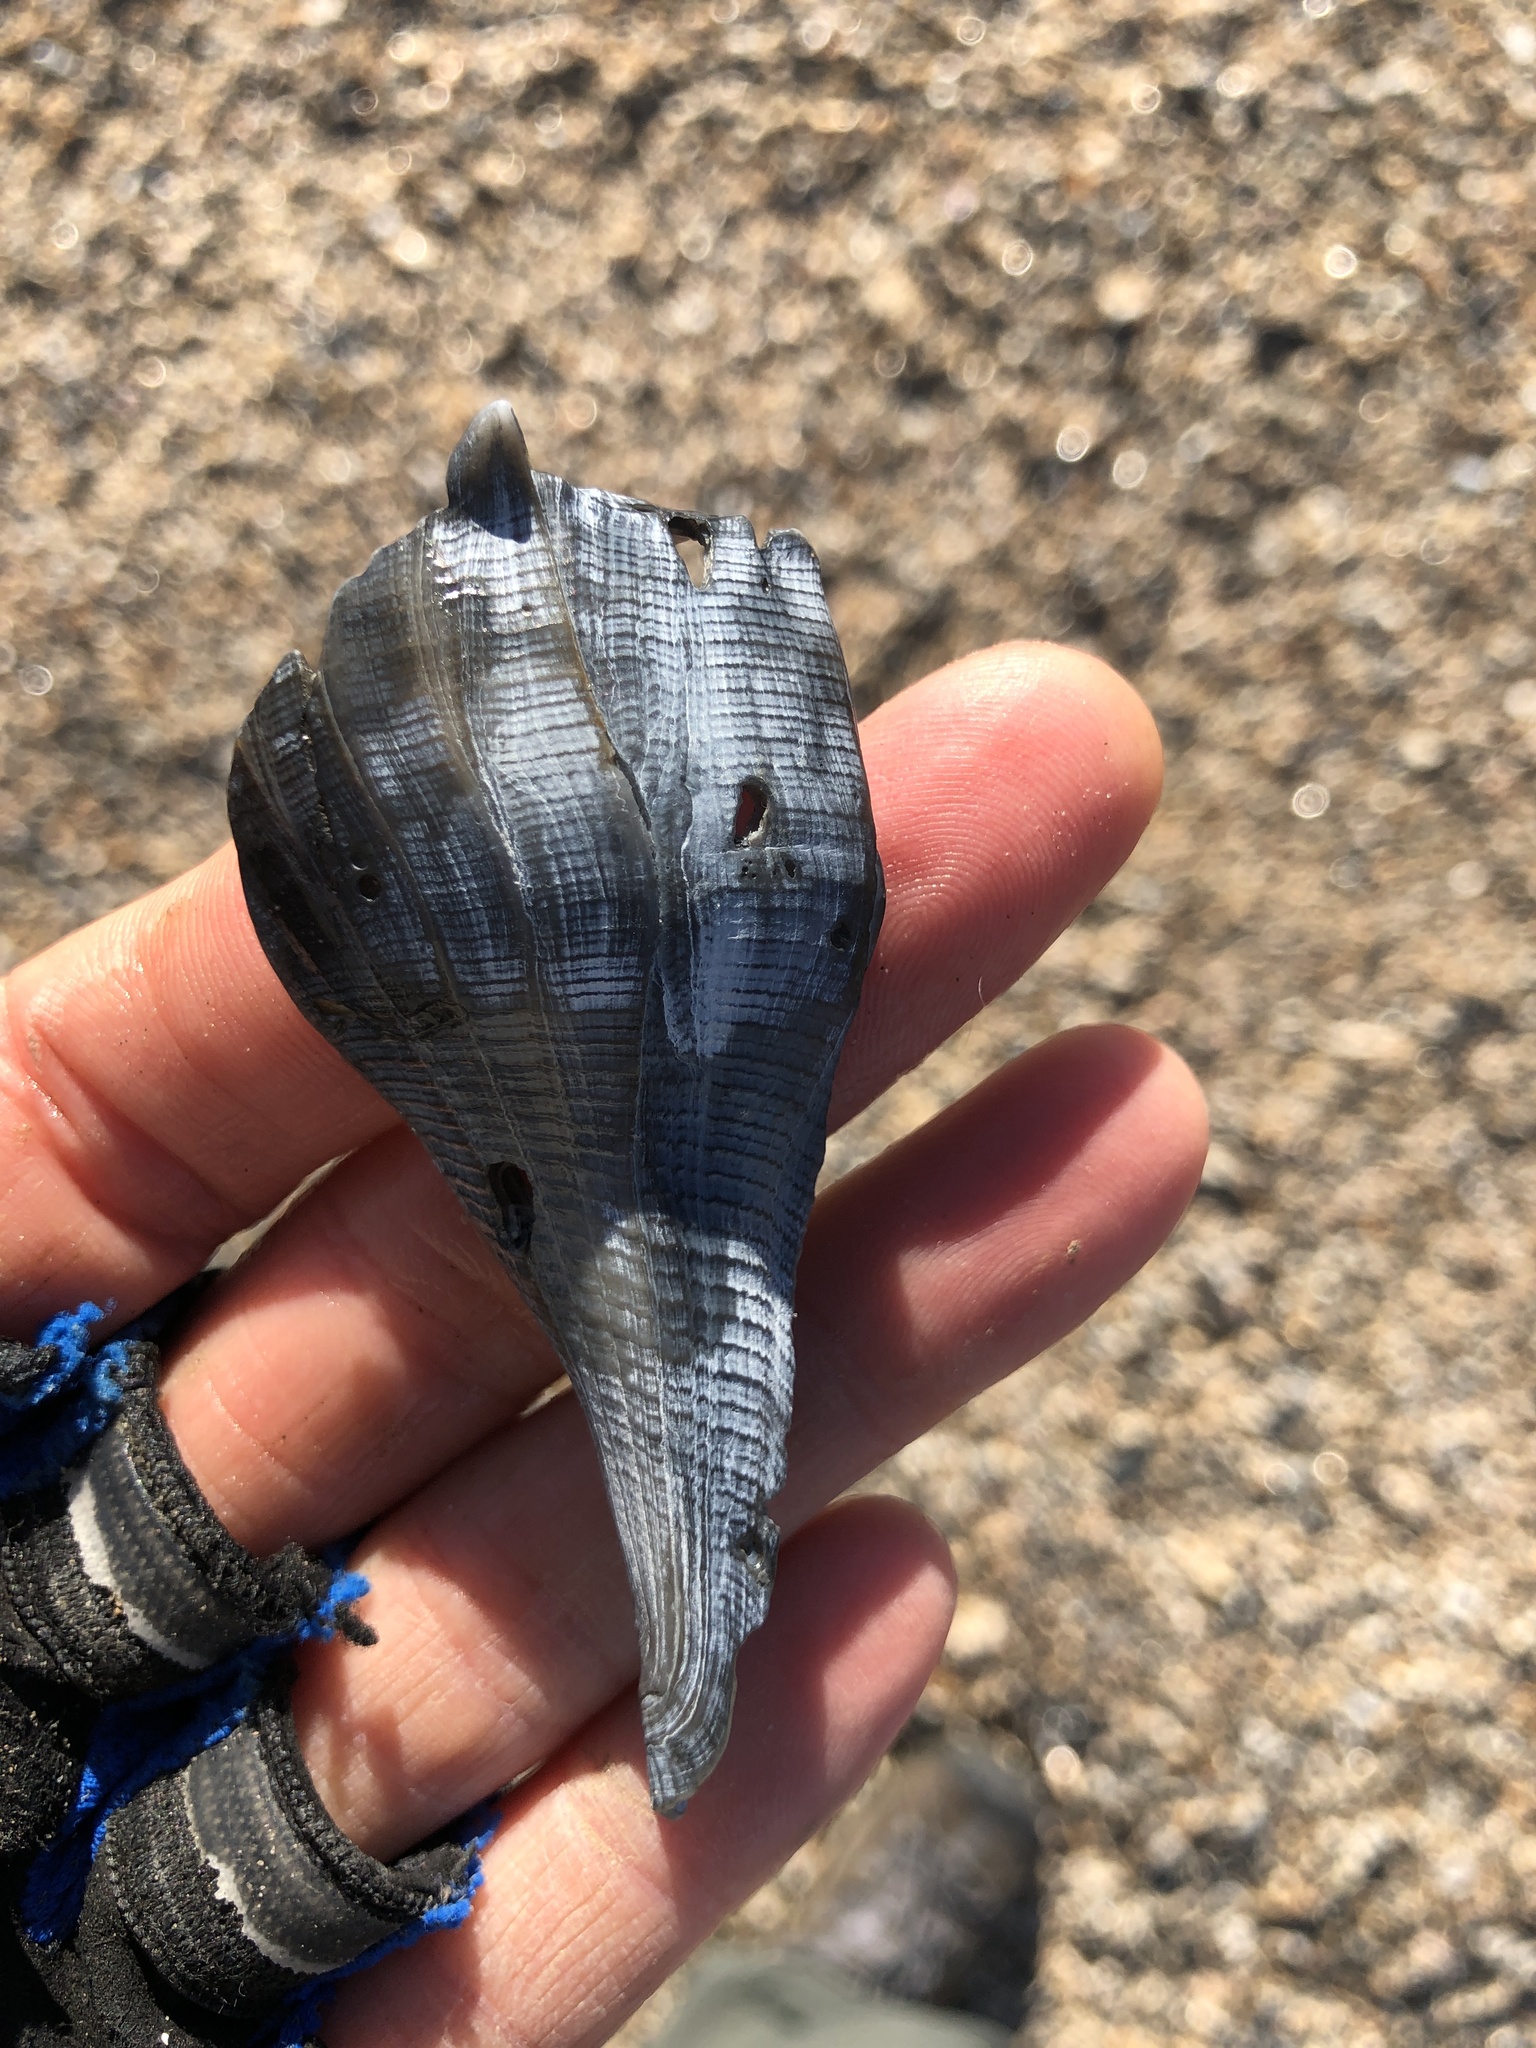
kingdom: Animalia
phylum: Mollusca
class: Gastropoda
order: Neogastropoda
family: Busyconidae
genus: Sinistrofulgur
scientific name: Sinistrofulgur pulleyi
